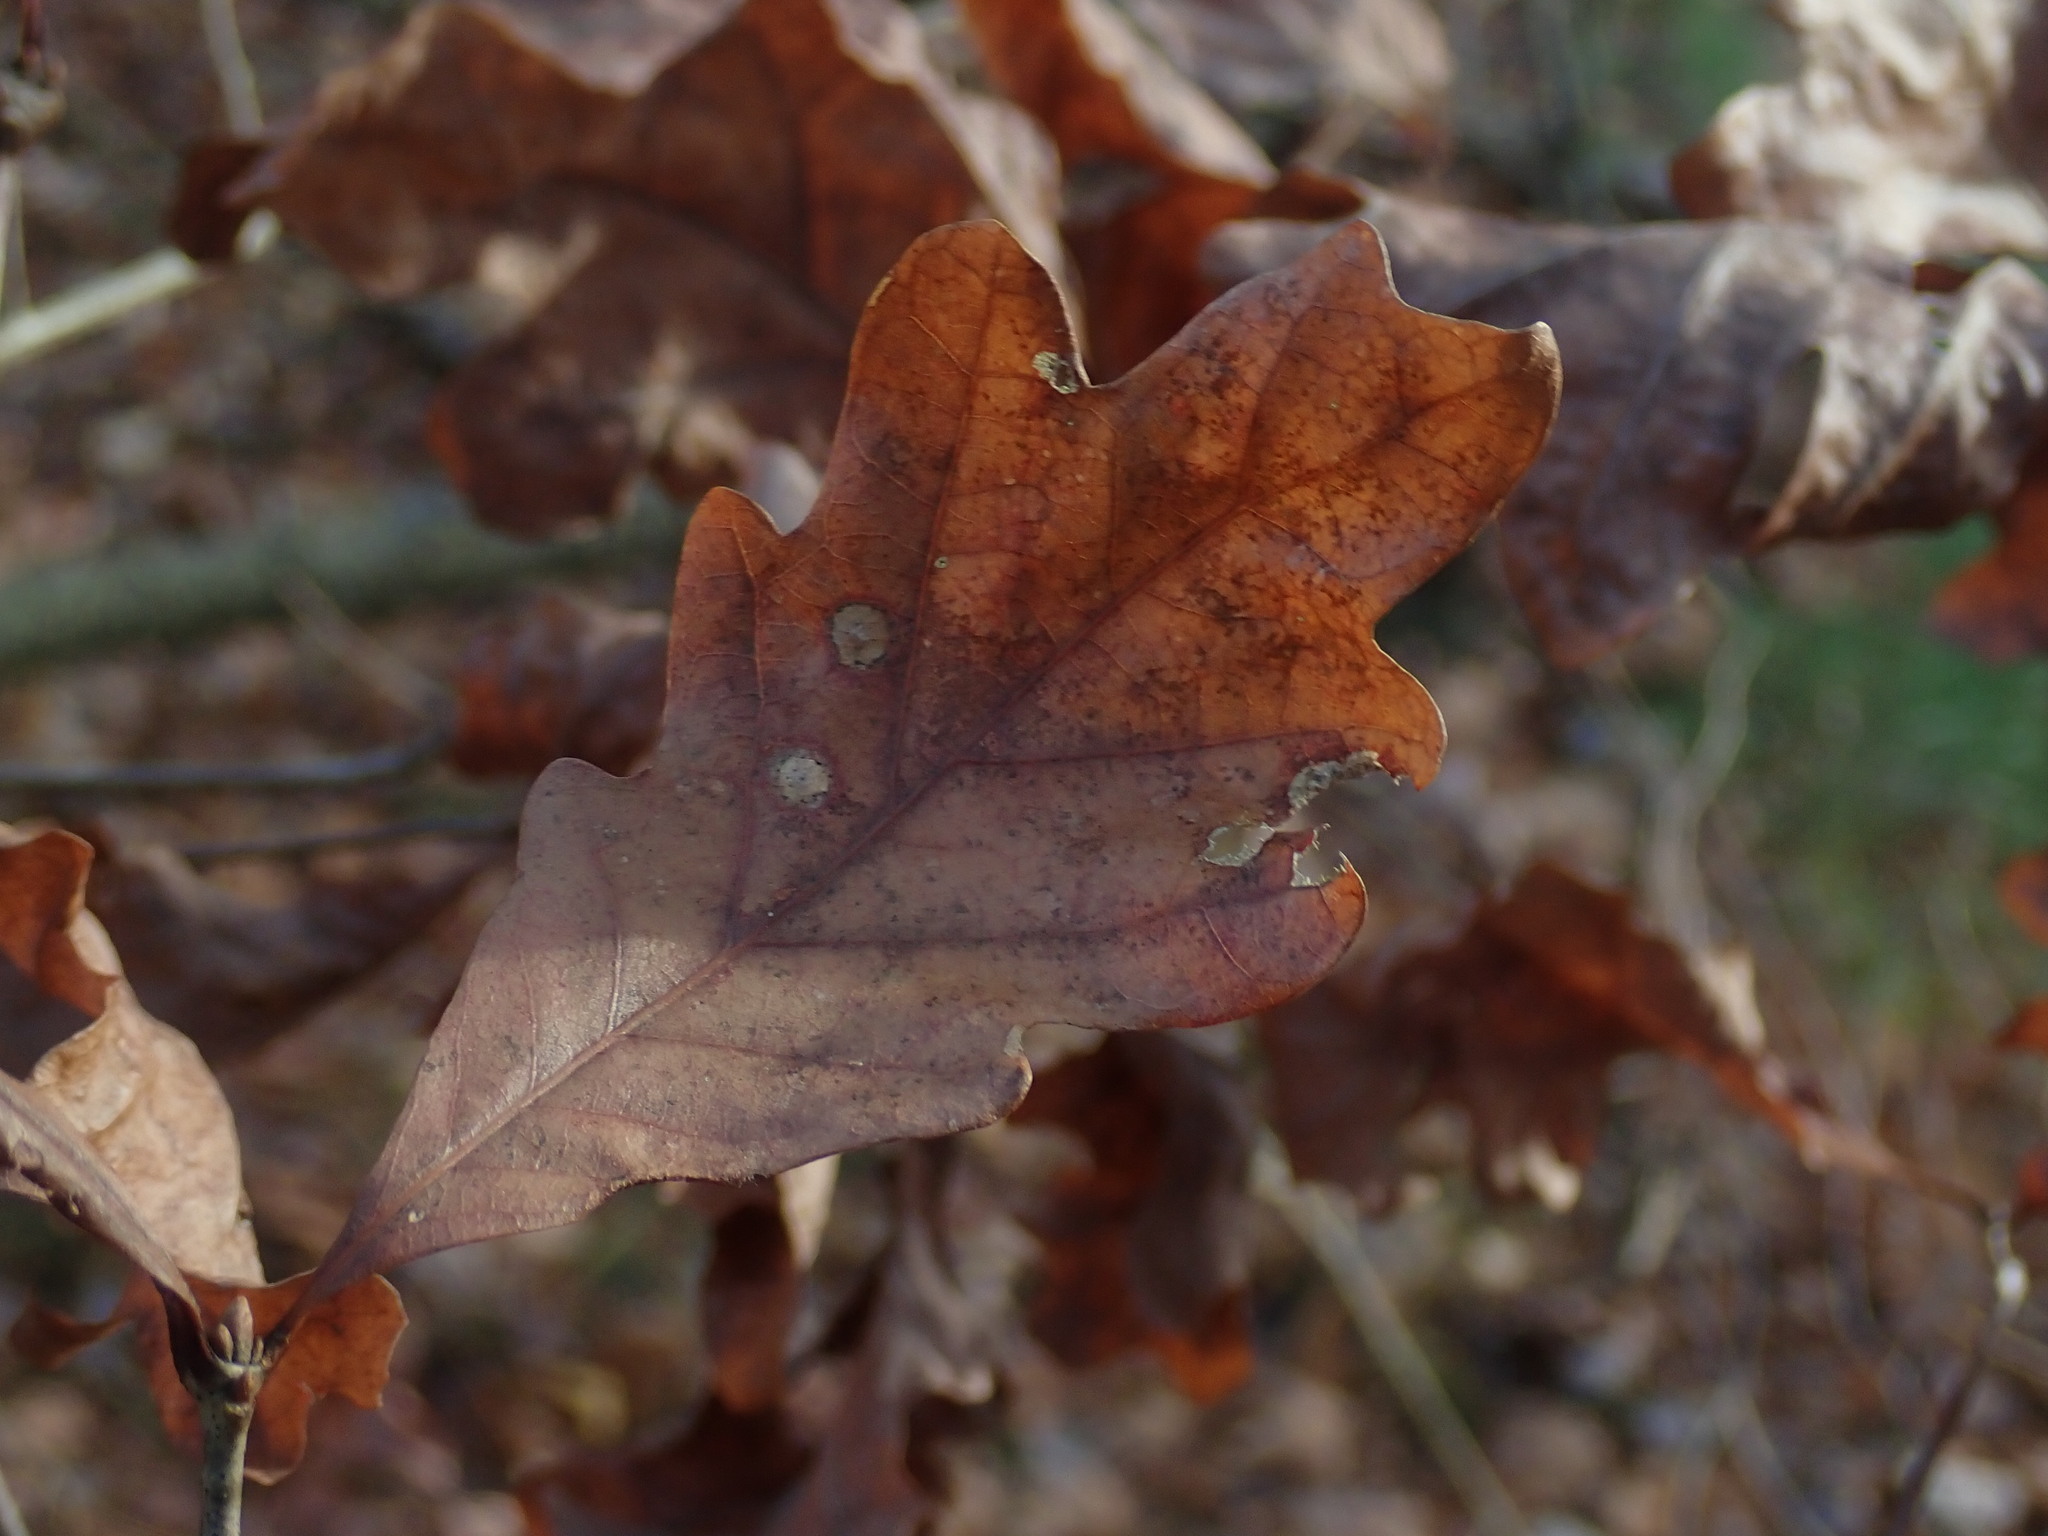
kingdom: Animalia
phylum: Arthropoda
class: Insecta
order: Hymenoptera
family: Cynipidae
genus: Disholcaspis
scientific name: Disholcaspis quercusglobulus
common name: Round bullet gall wasp
